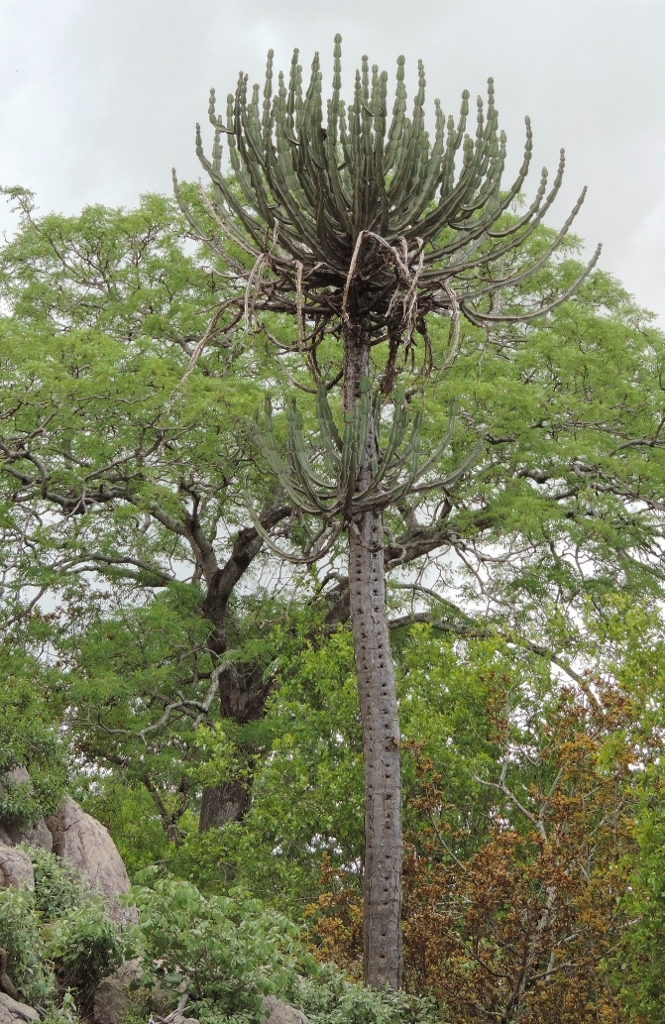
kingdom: Plantae
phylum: Tracheophyta
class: Magnoliopsida
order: Malpighiales
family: Euphorbiaceae
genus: Euphorbia
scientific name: Euphorbia cooperi
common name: Candelabra tree
